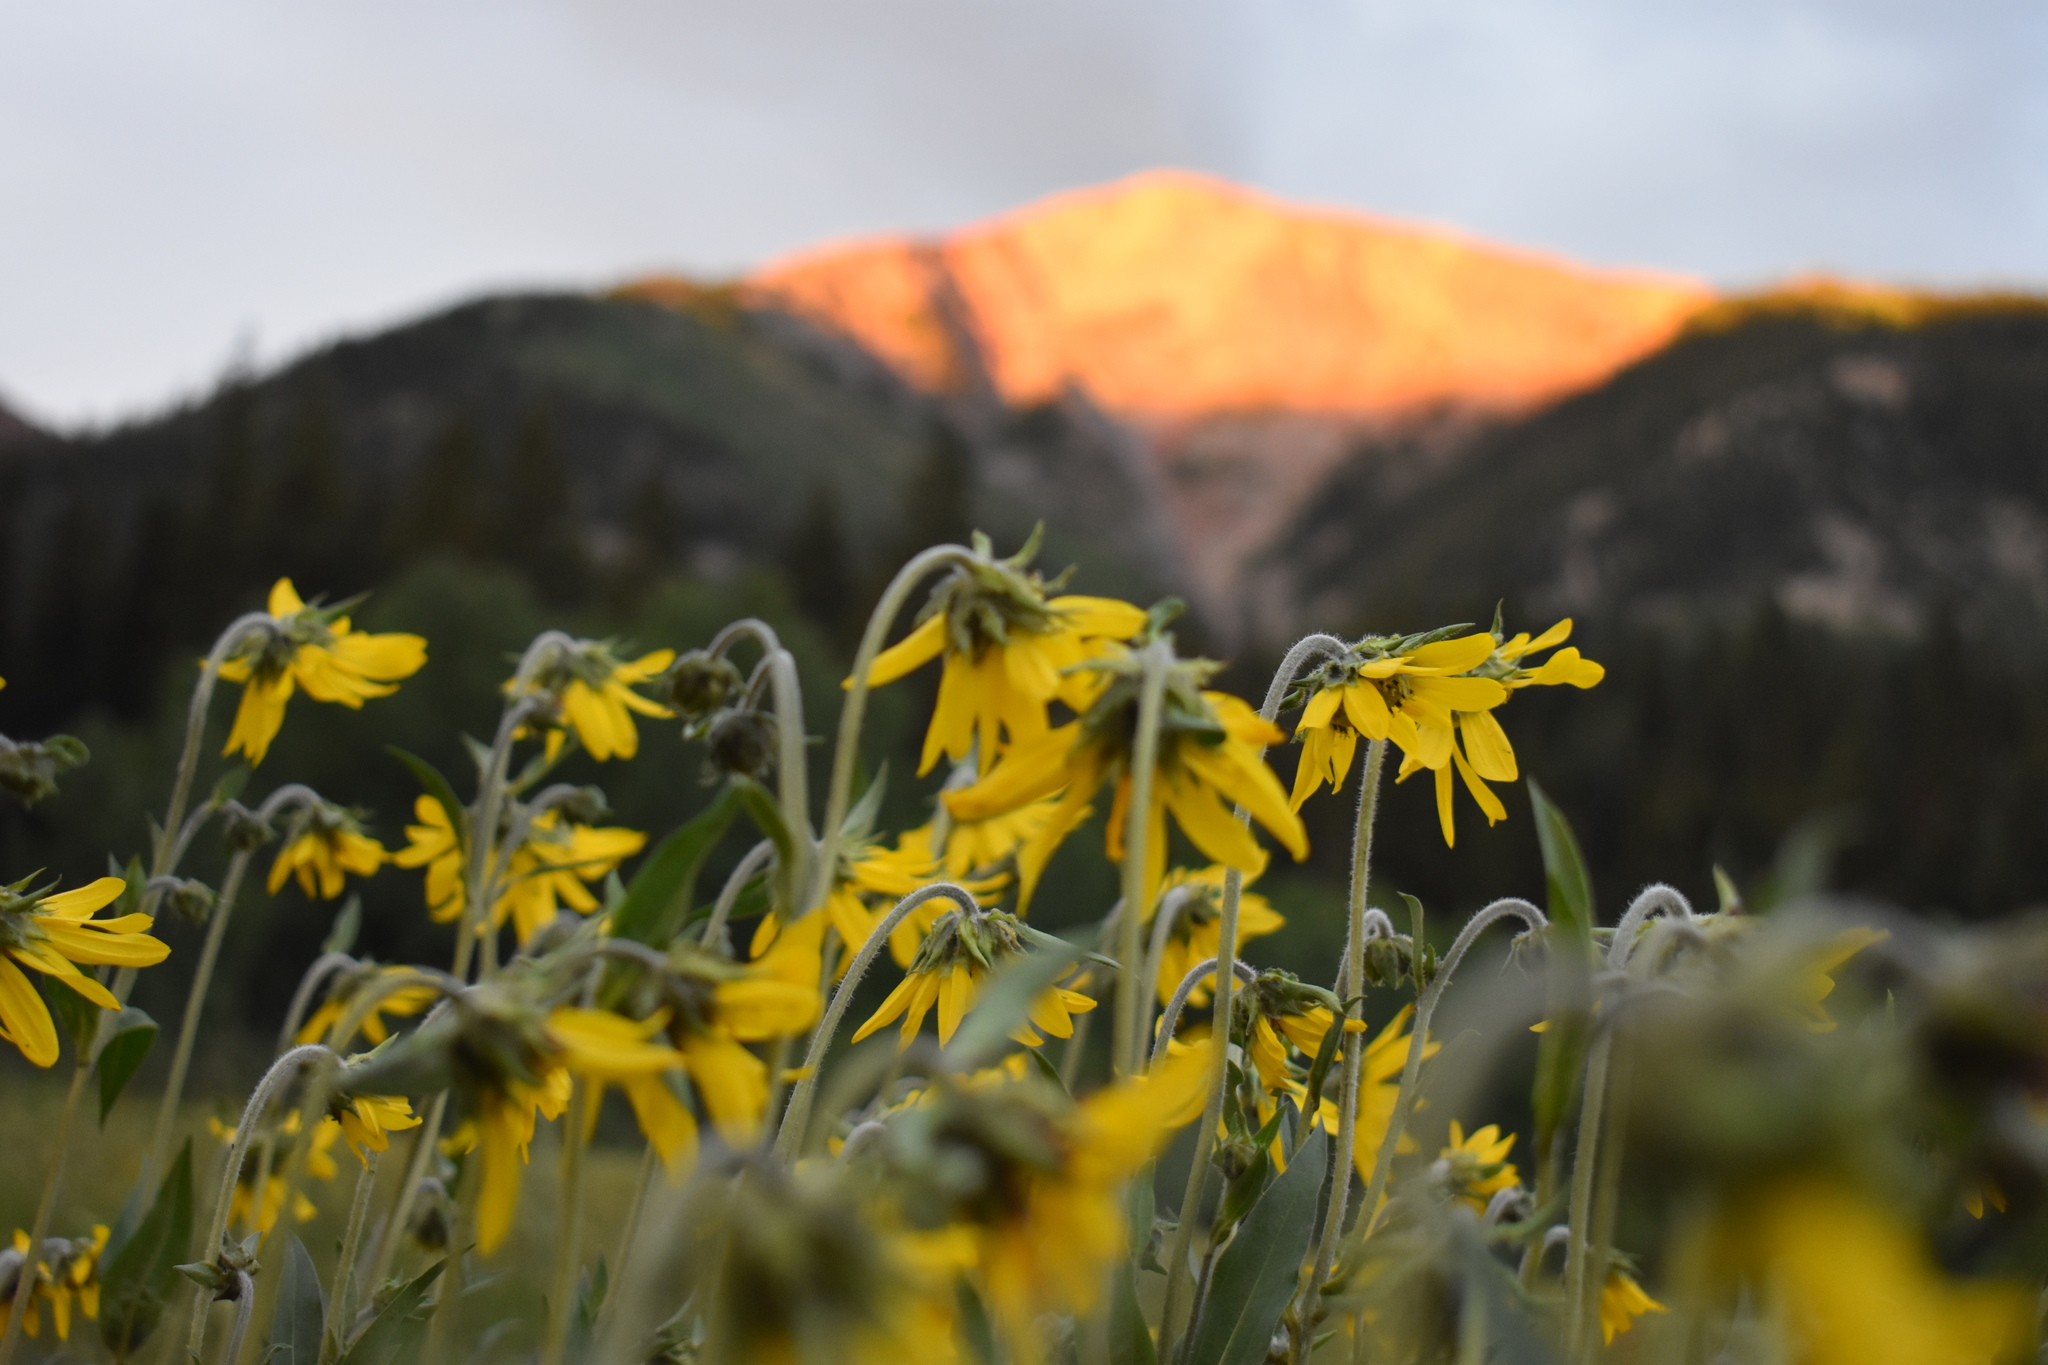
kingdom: Plantae
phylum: Tracheophyta
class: Magnoliopsida
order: Asterales
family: Asteraceae
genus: Helianthella
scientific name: Helianthella quinquenervis
